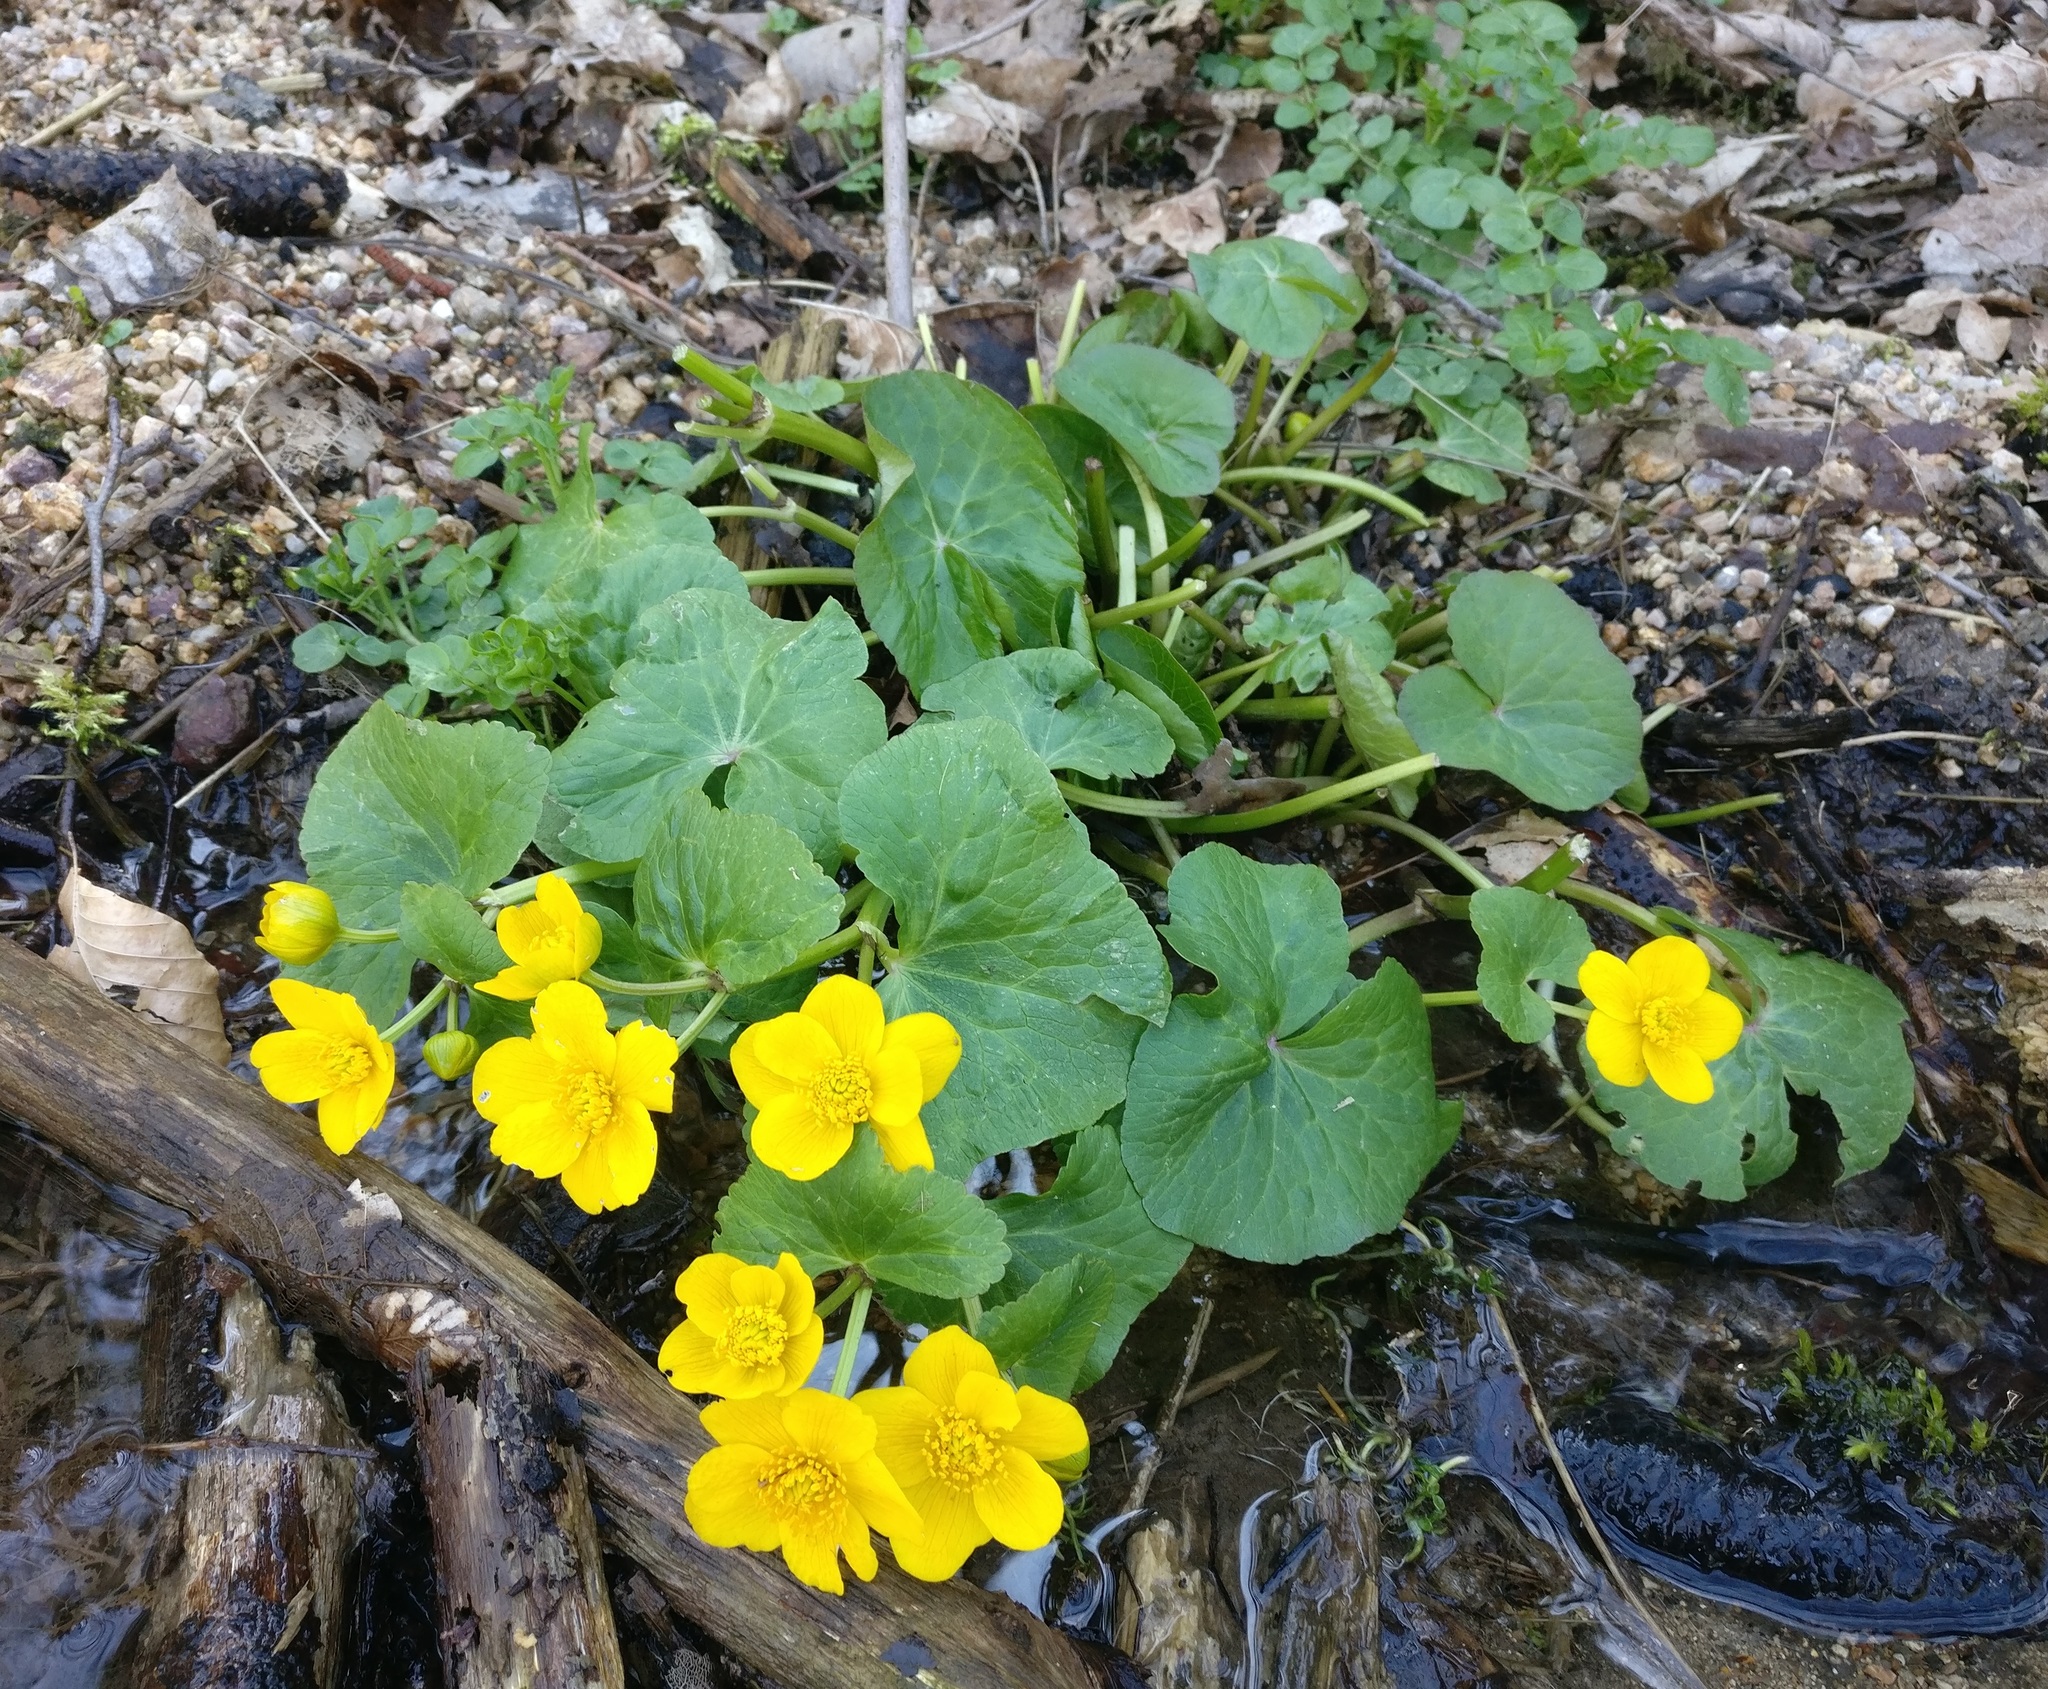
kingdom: Plantae
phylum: Tracheophyta
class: Magnoliopsida
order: Ranunculales
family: Ranunculaceae
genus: Caltha
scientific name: Caltha palustris
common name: Marsh marigold
